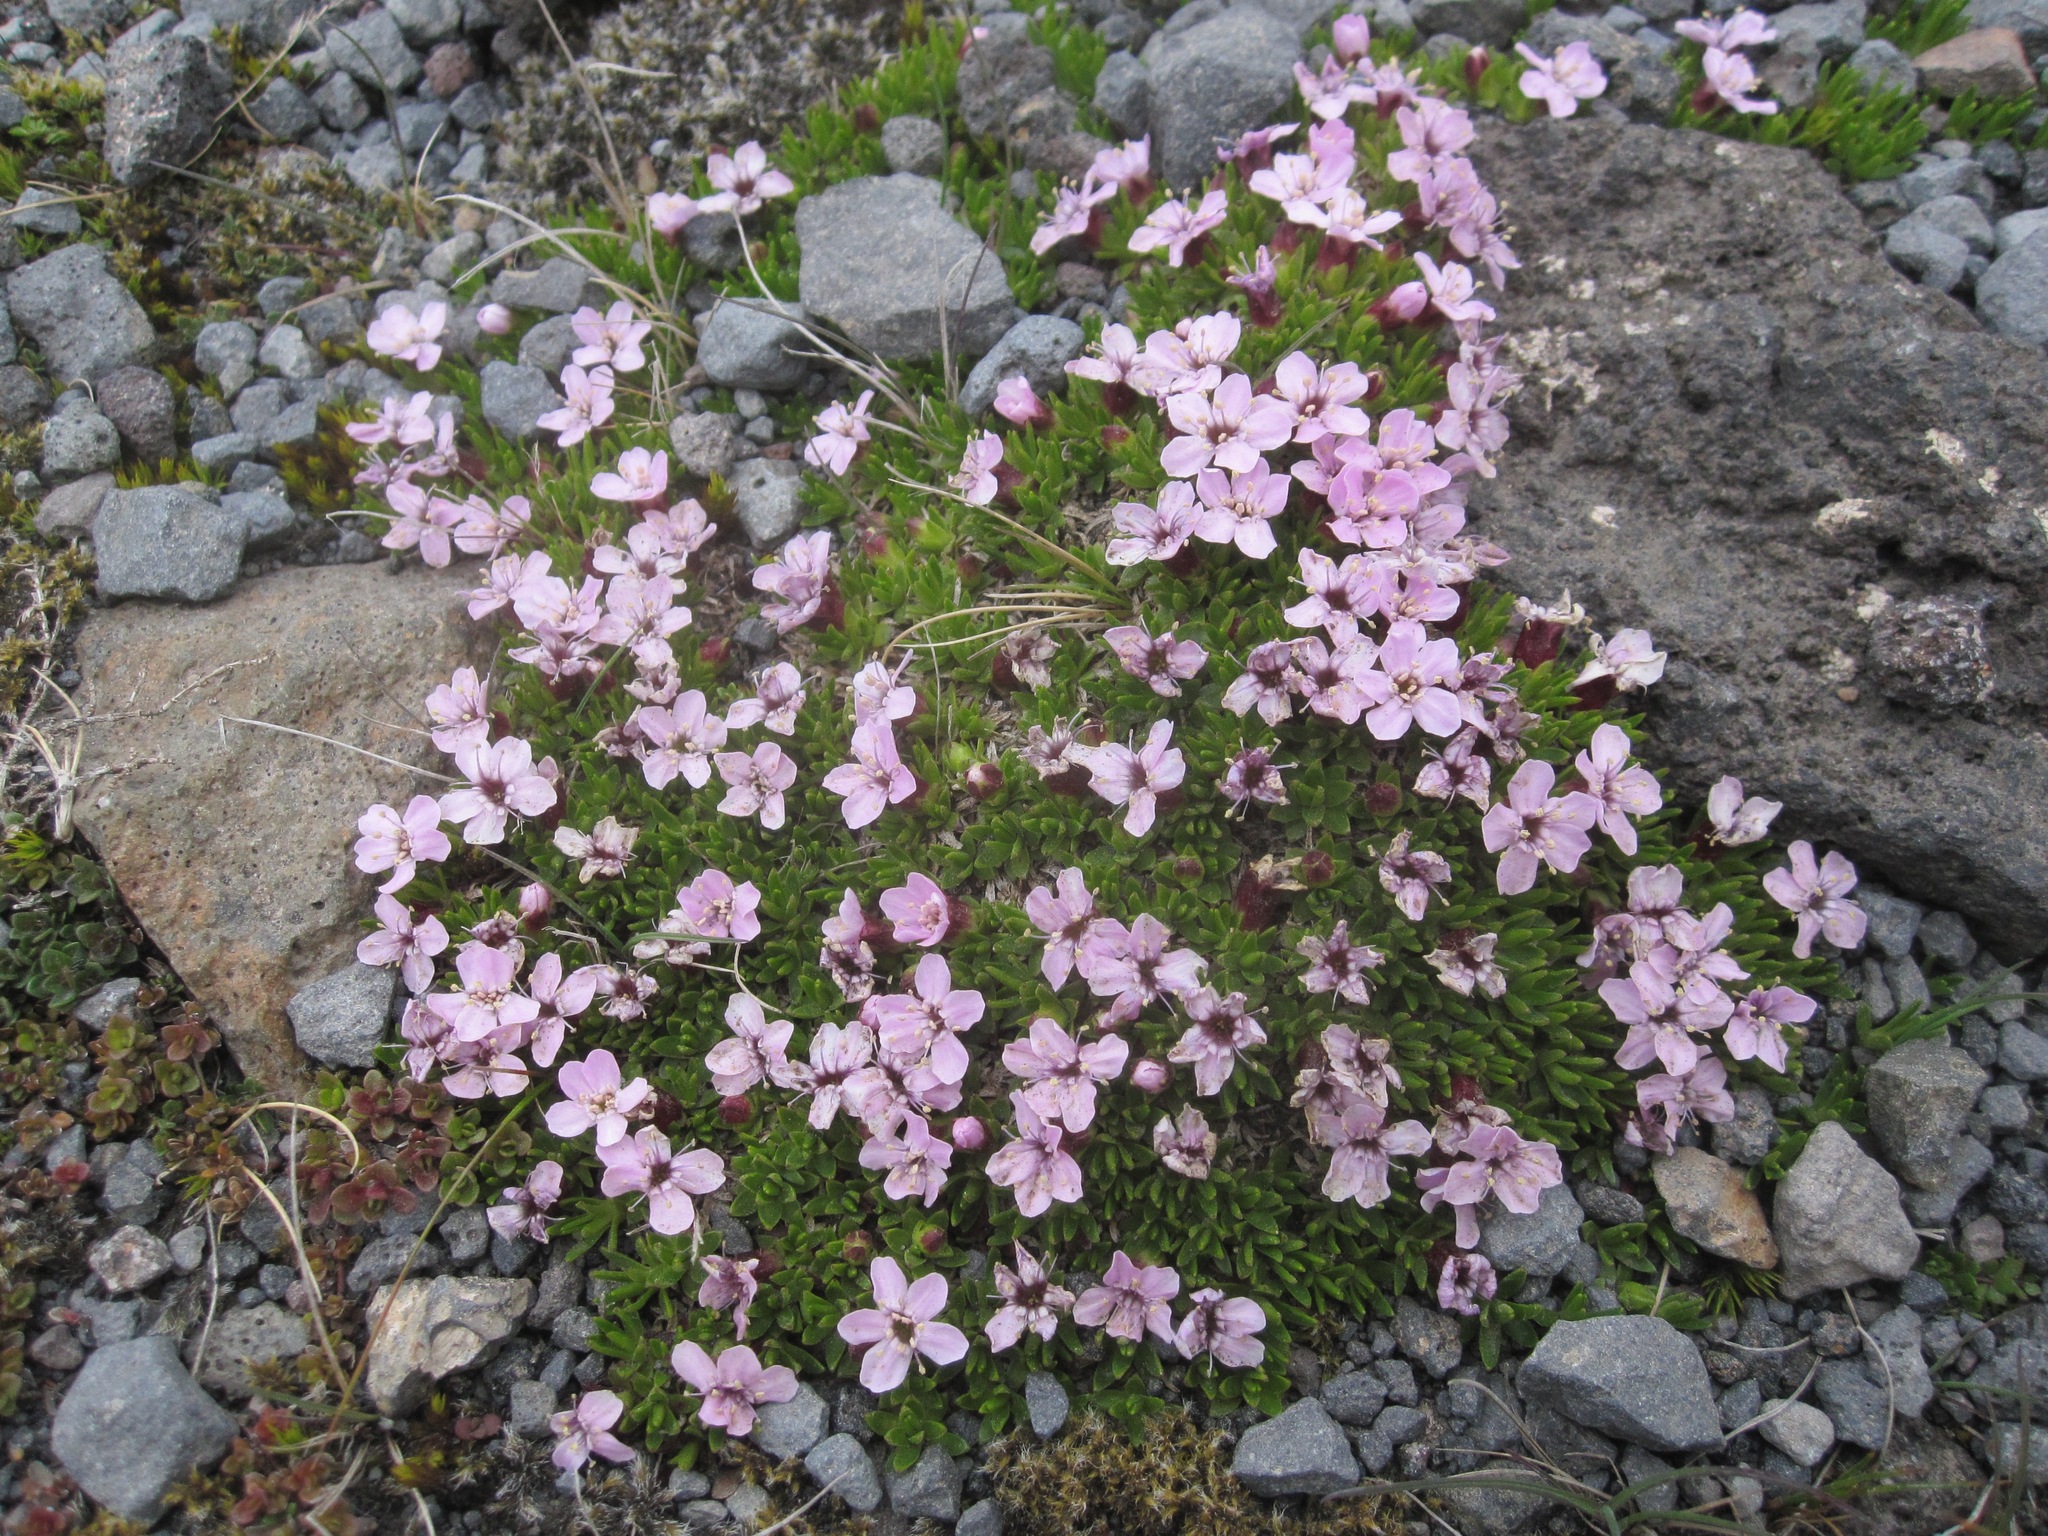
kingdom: Plantae
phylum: Tracheophyta
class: Magnoliopsida
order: Caryophyllales
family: Caryophyllaceae
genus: Silene
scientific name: Silene acaulis
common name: Moss campion
